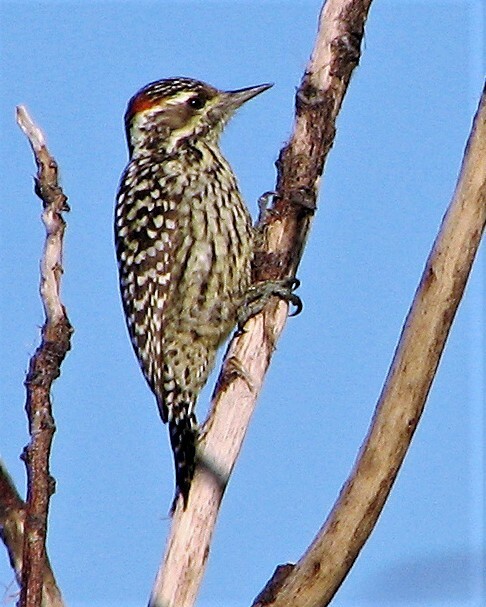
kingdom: Animalia
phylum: Chordata
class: Aves
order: Piciformes
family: Picidae
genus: Veniliornis
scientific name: Veniliornis mixtus
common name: Checkered woodpecker
